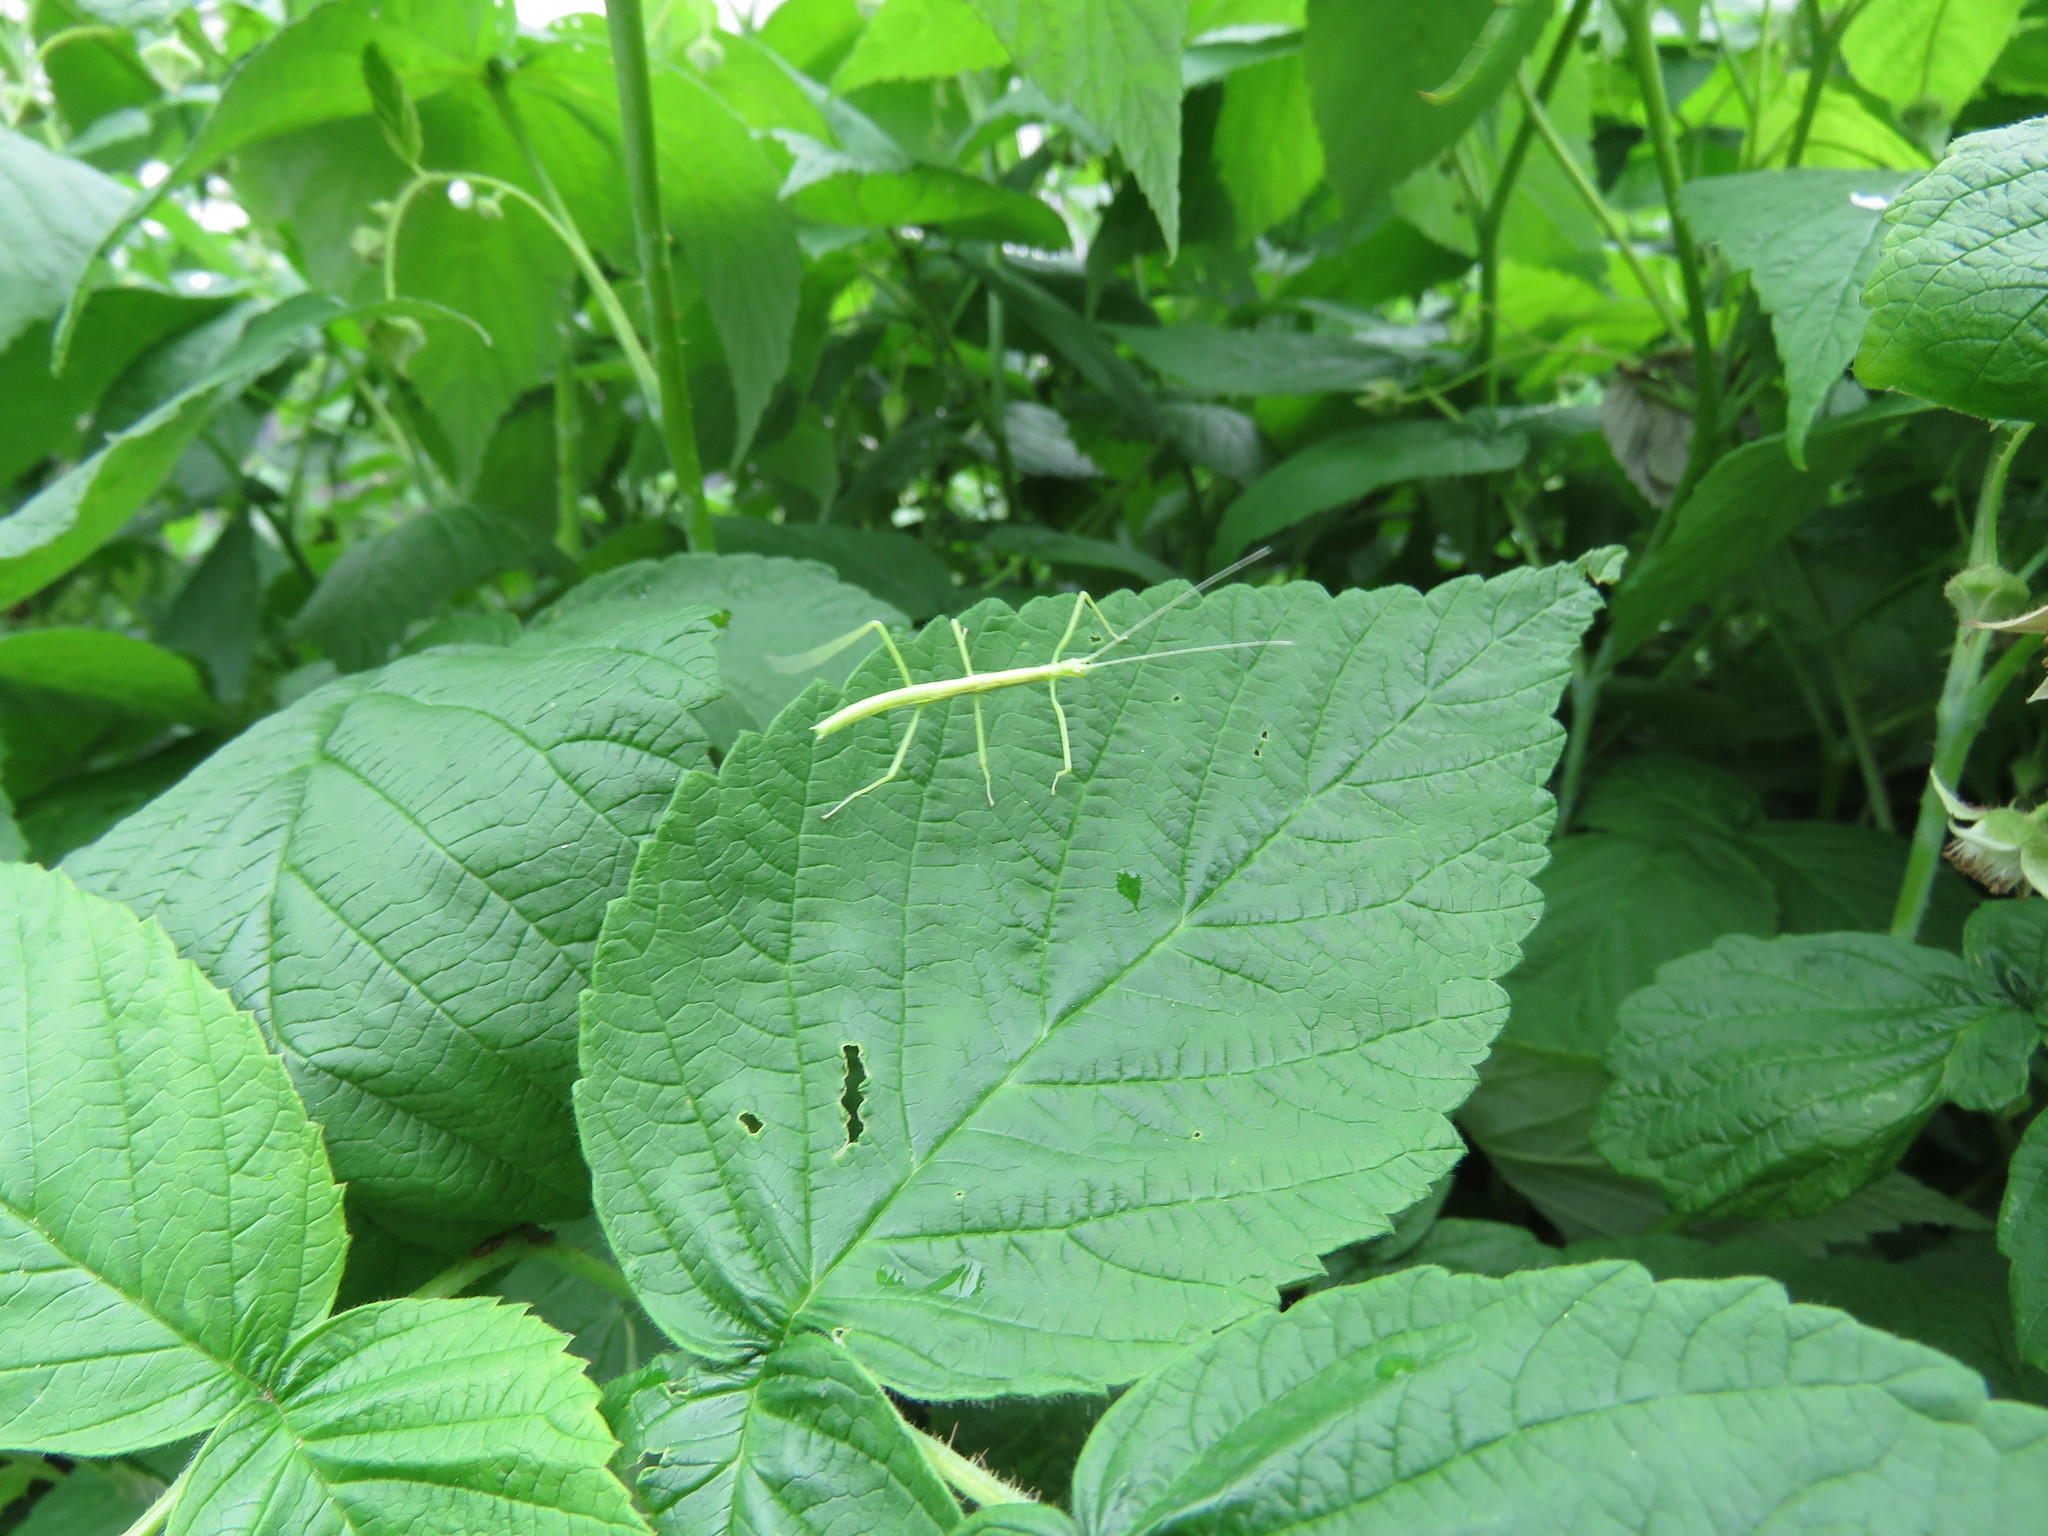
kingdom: Animalia
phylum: Arthropoda
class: Insecta
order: Phasmida
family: Diapheromeridae
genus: Diapheromera
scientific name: Diapheromera femorata
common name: Common american walkingstick
